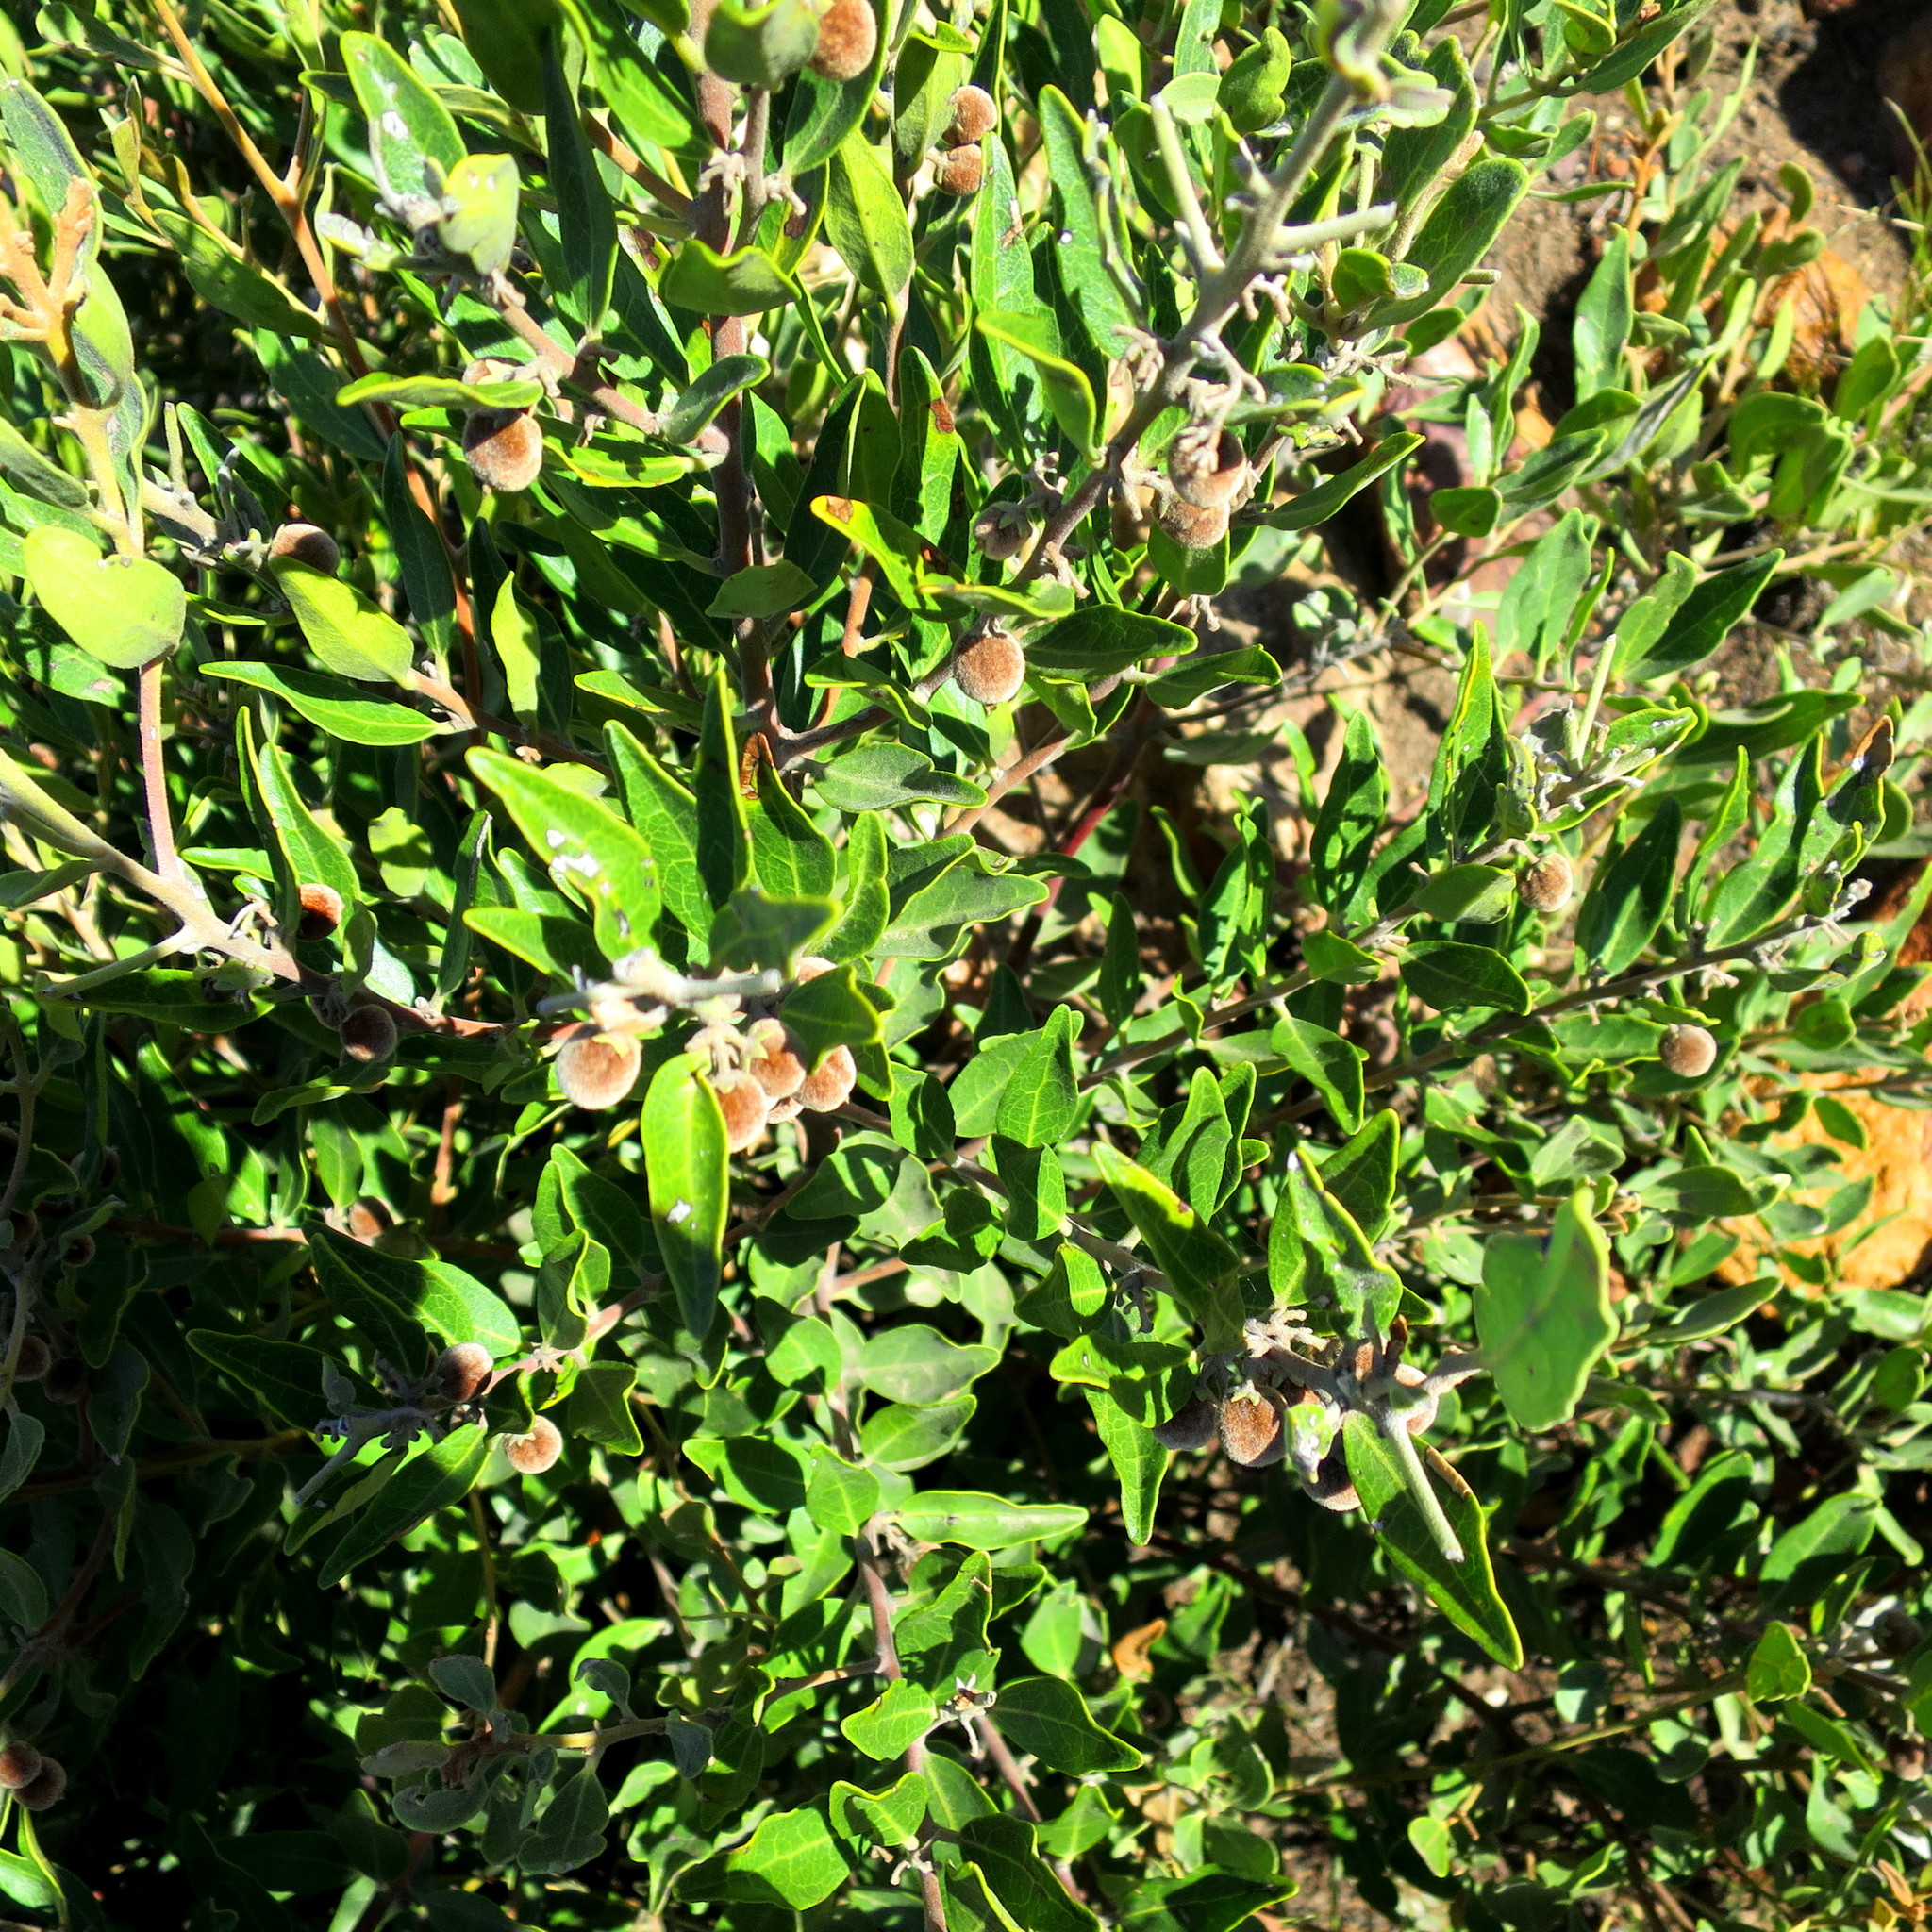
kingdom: Plantae
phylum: Tracheophyta
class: Magnoliopsida
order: Ericales
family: Ebenaceae
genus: Euclea
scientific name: Euclea polyandra
